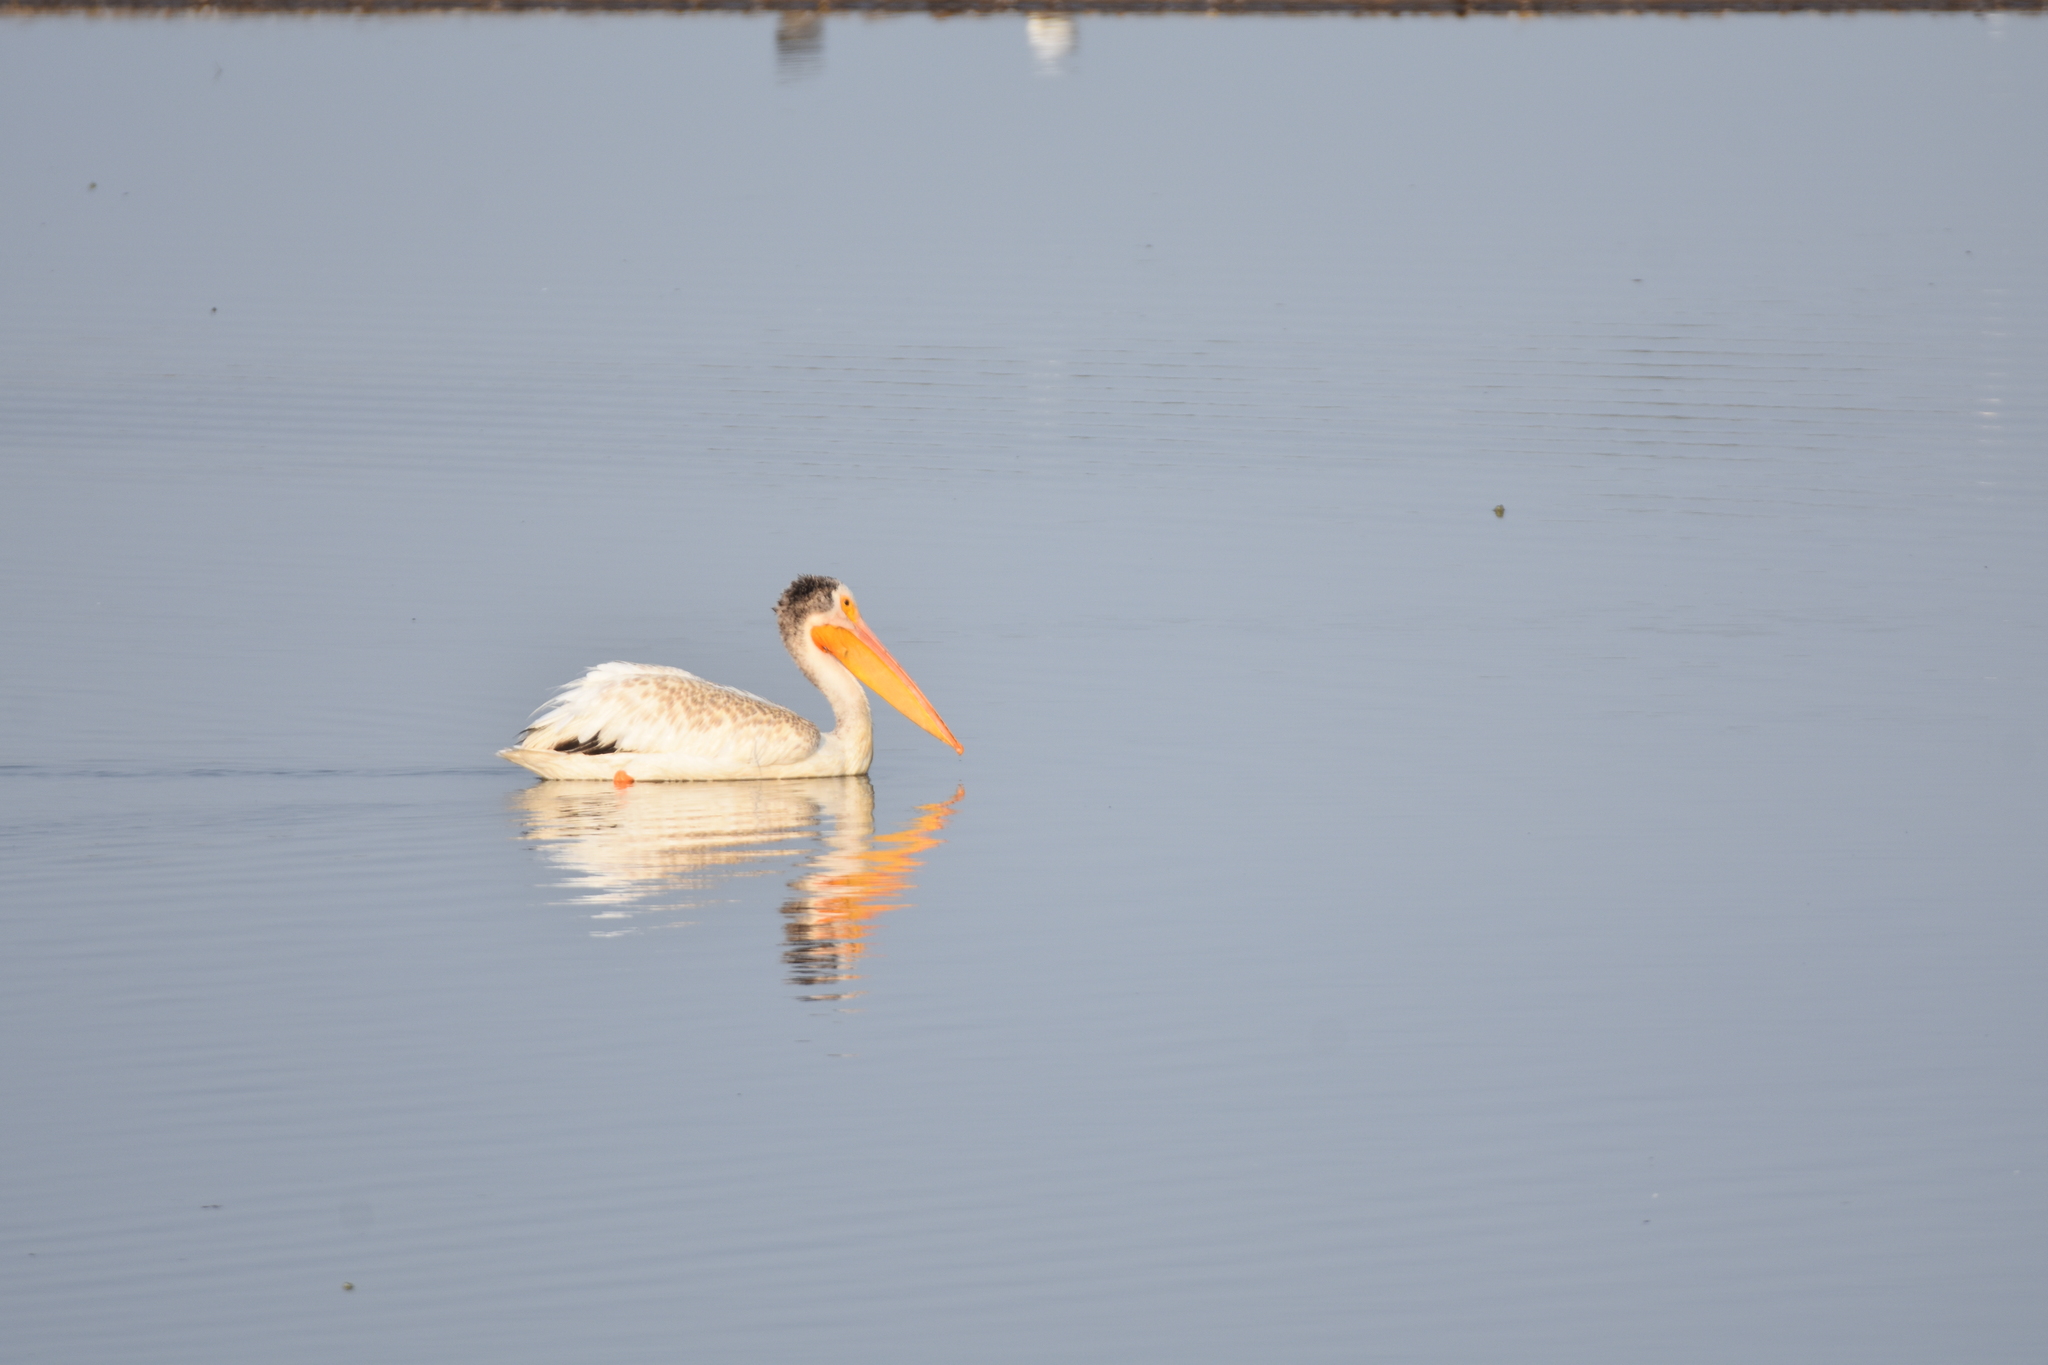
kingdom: Animalia
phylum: Chordata
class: Aves
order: Pelecaniformes
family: Pelecanidae
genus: Pelecanus
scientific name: Pelecanus erythrorhynchos
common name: American white pelican
